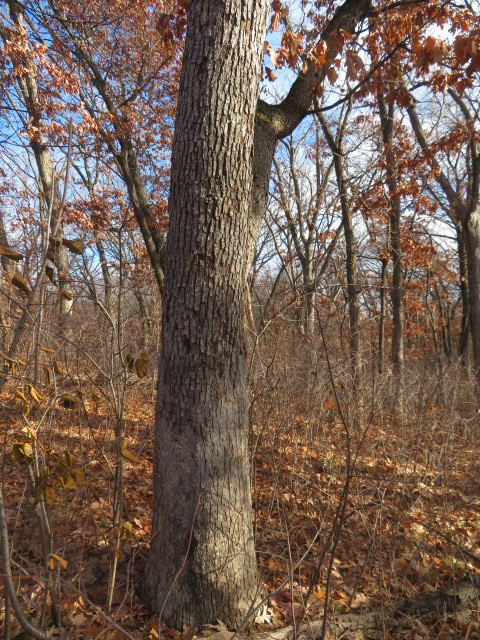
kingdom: Fungi
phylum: Basidiomycota
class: Agaricomycetes
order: Russulales
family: Stereaceae
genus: Acanthophysium
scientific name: Acanthophysium oakesii
